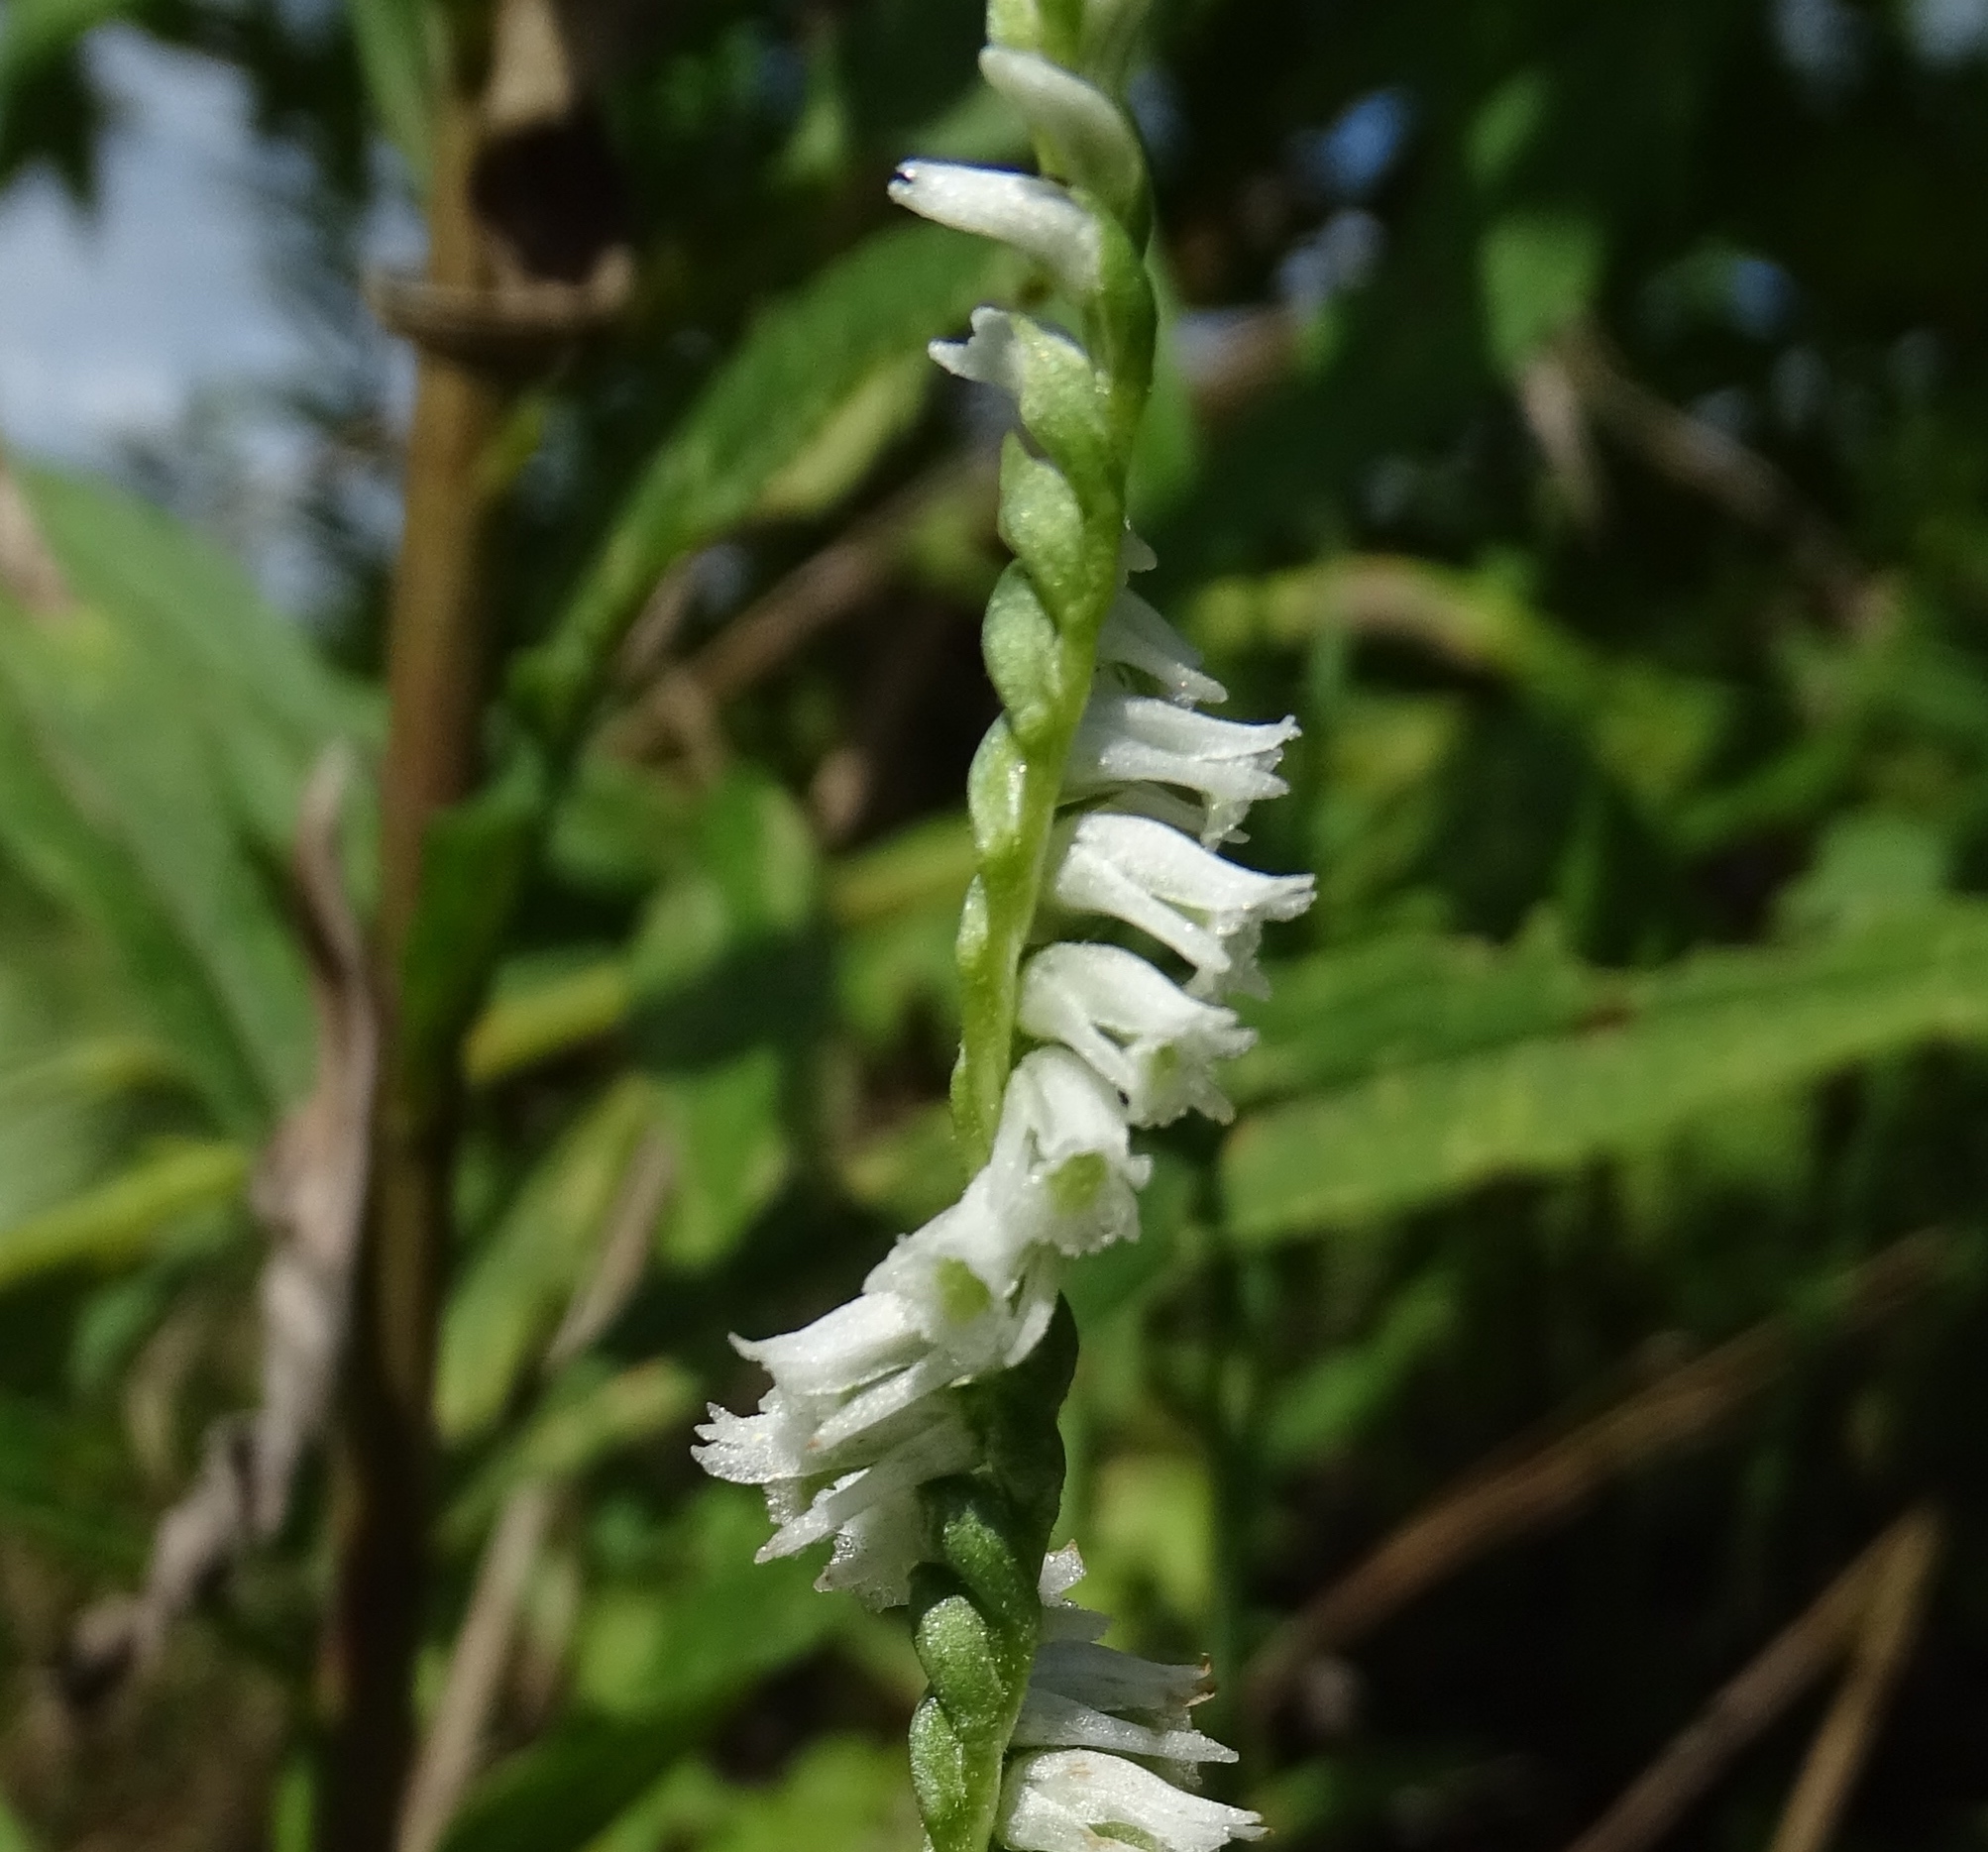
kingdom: Plantae
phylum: Tracheophyta
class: Liliopsida
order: Asparagales
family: Orchidaceae
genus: Spiranthes
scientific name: Spiranthes lacera
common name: Northern slender ladies'-tresses
